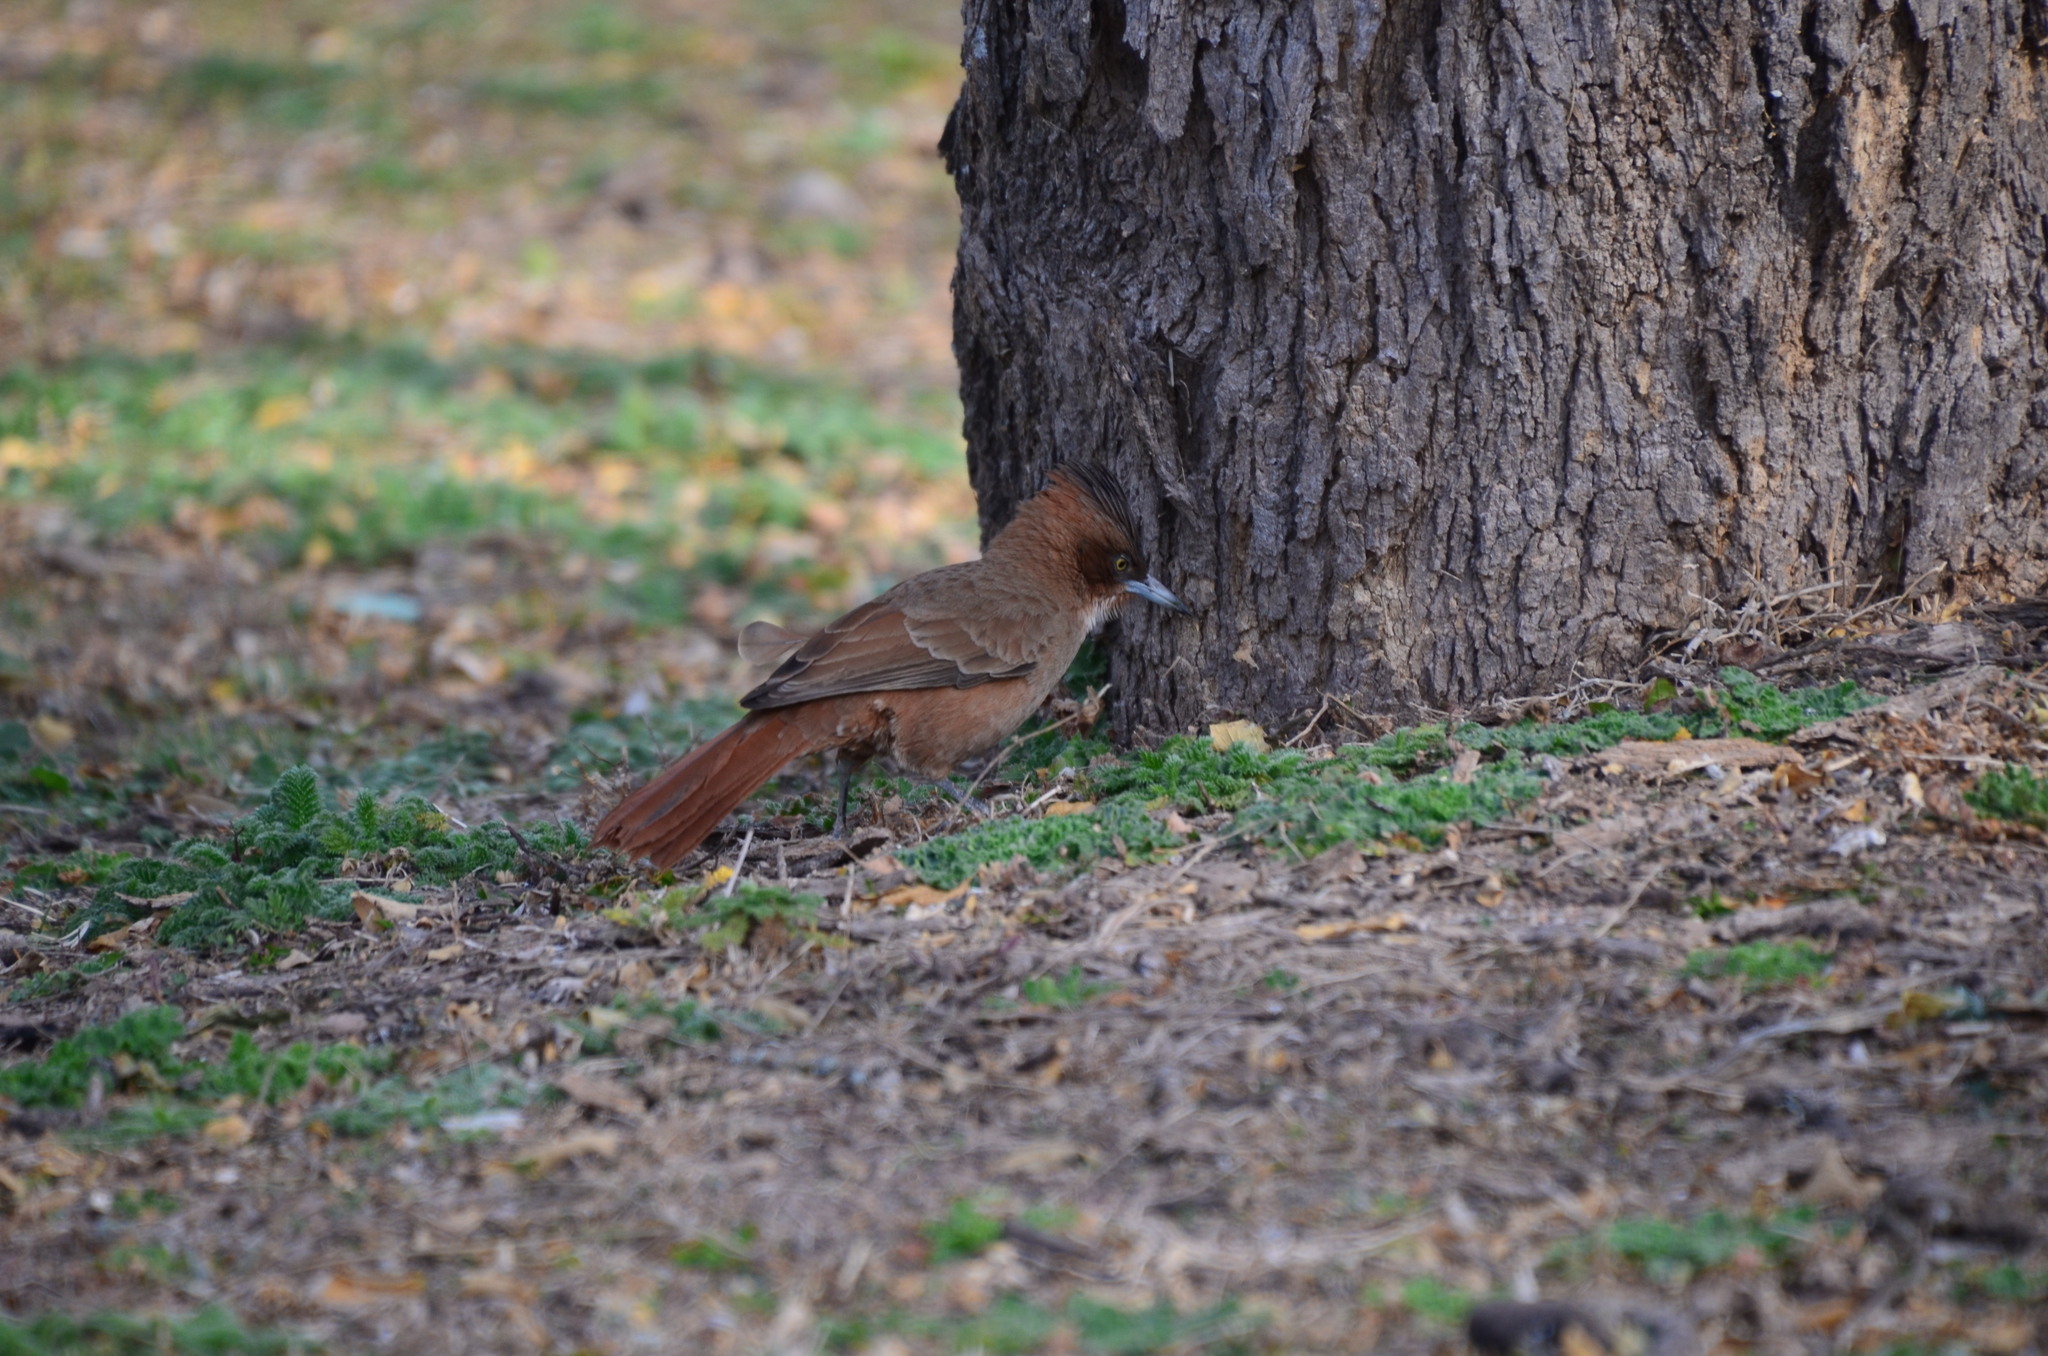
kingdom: Animalia
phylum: Chordata
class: Aves
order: Passeriformes
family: Furnariidae
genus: Pseudoseisura
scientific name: Pseudoseisura lophotes
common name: Brown cacholote
